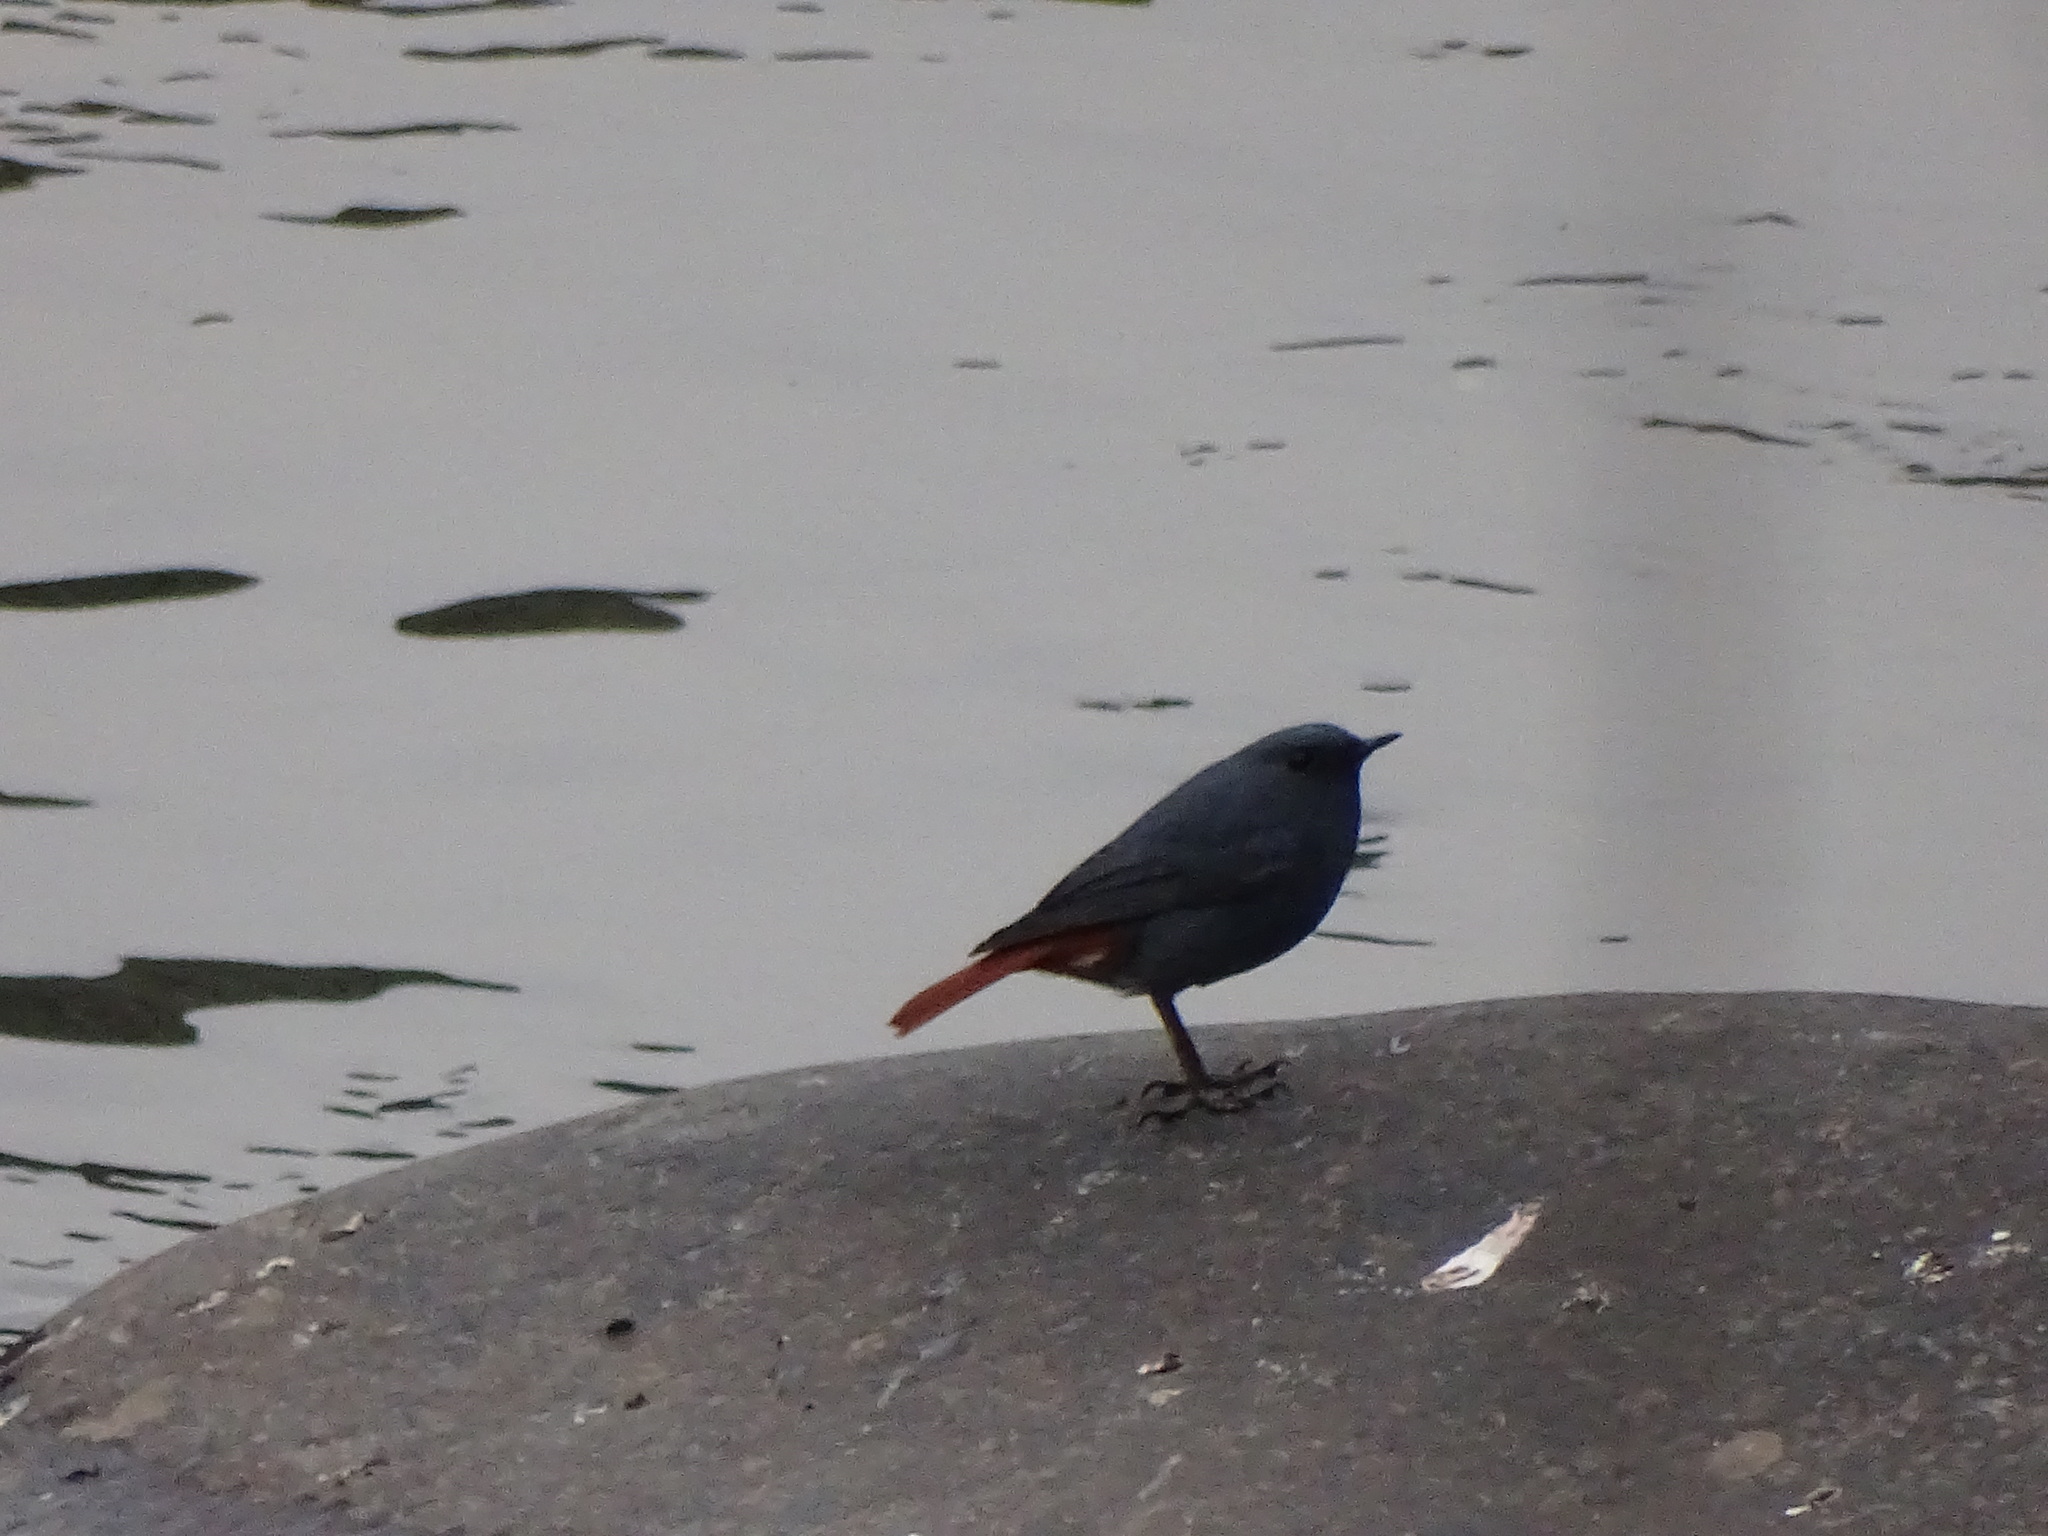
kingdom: Animalia
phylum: Chordata
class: Aves
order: Passeriformes
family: Muscicapidae
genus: Phoenicurus
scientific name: Phoenicurus fuliginosus
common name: Plumbeous water redstart
